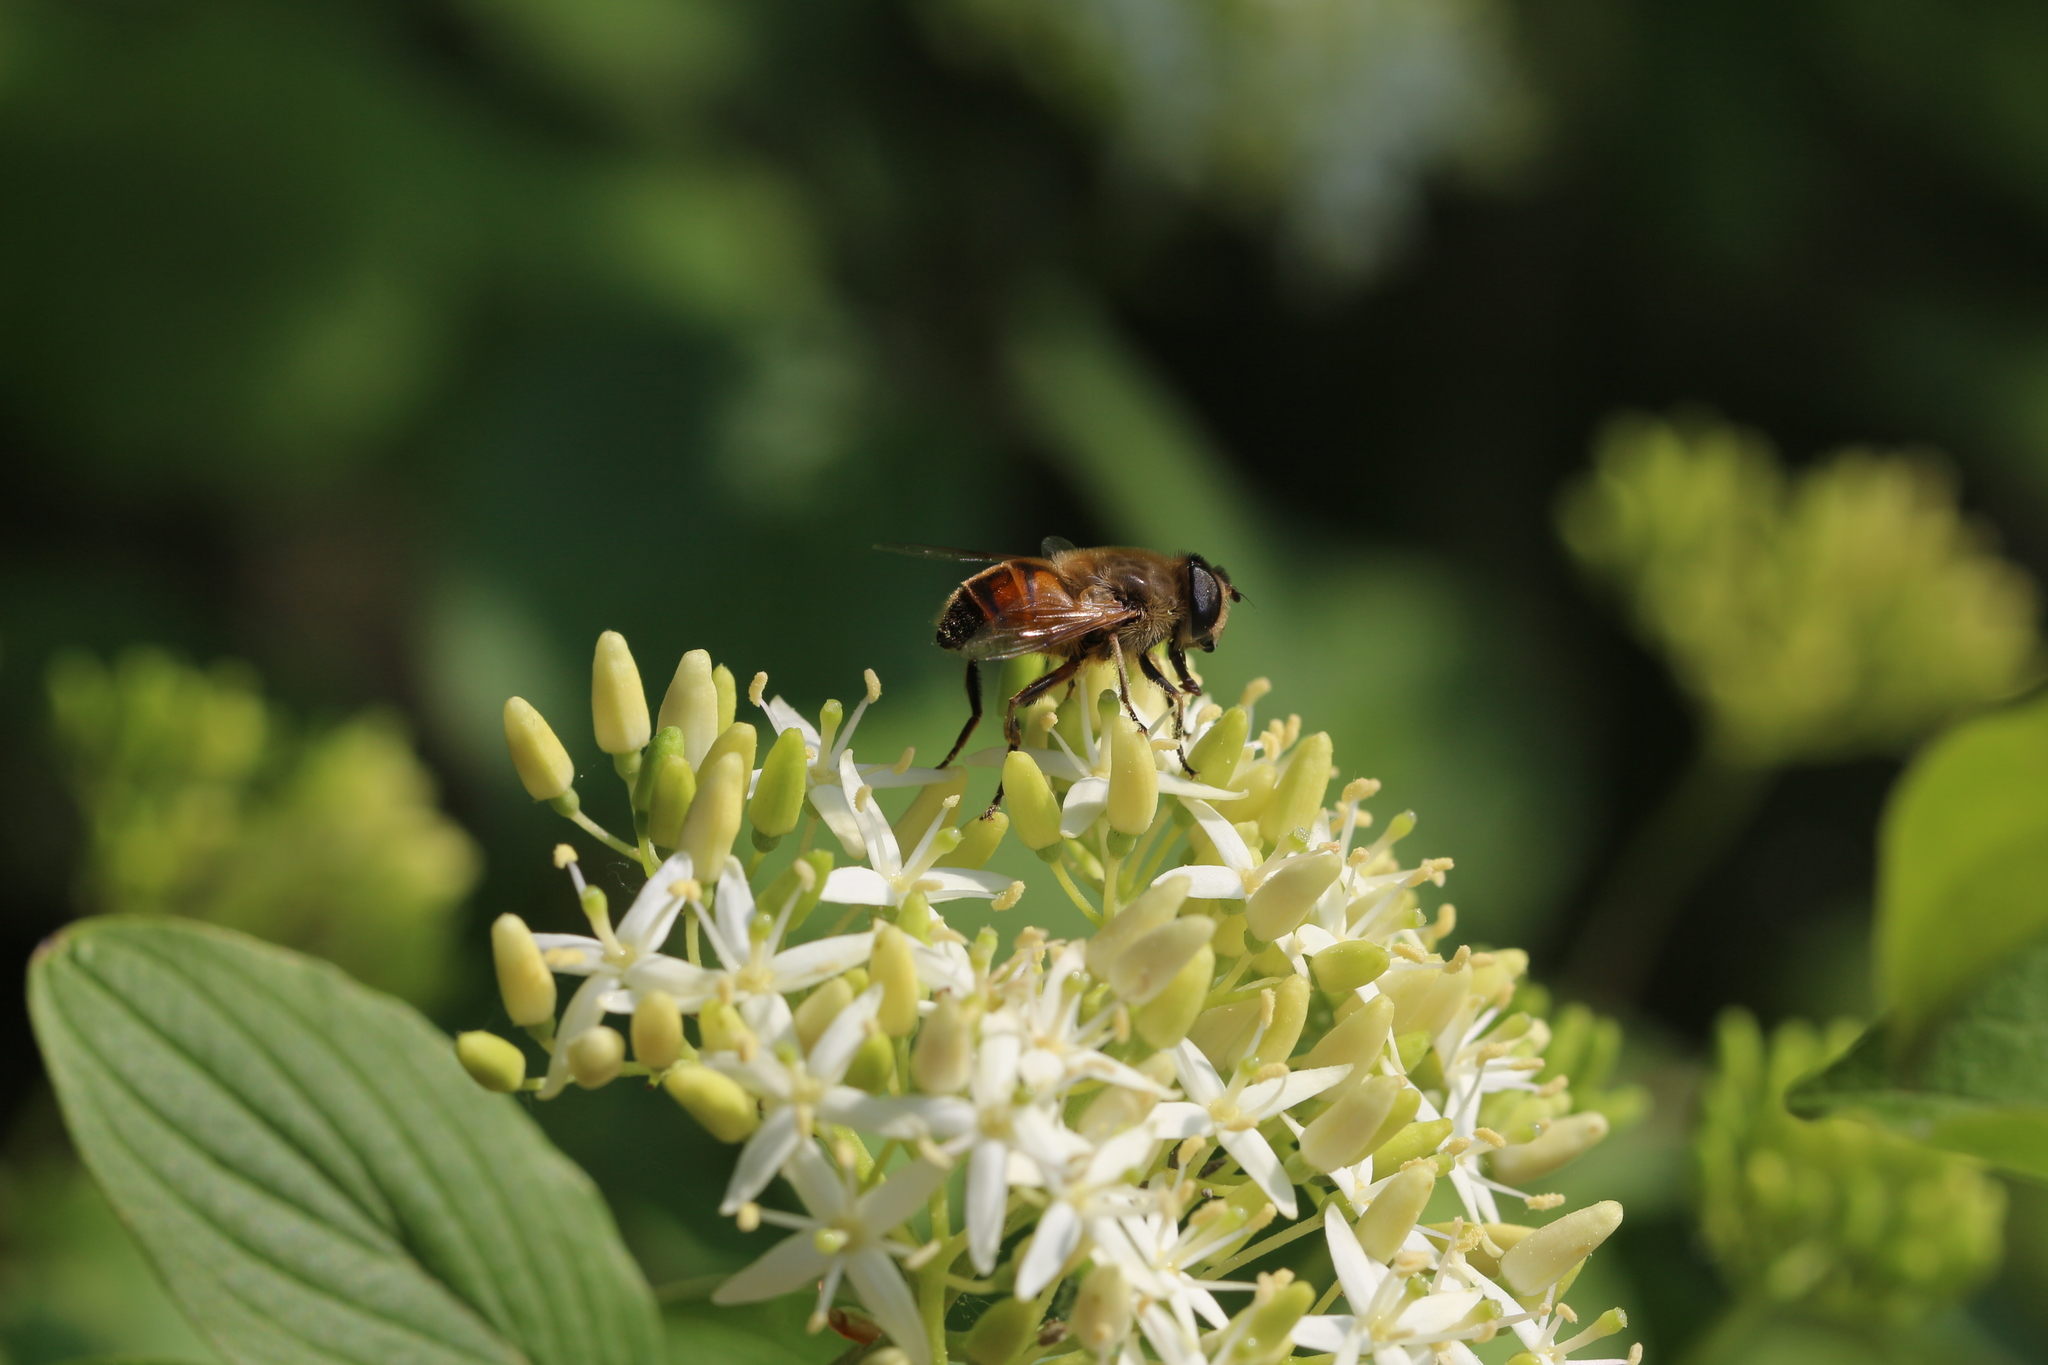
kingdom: Animalia
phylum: Arthropoda
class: Insecta
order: Diptera
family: Syrphidae
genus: Eristalis
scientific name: Eristalis tenax
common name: Drone fly
